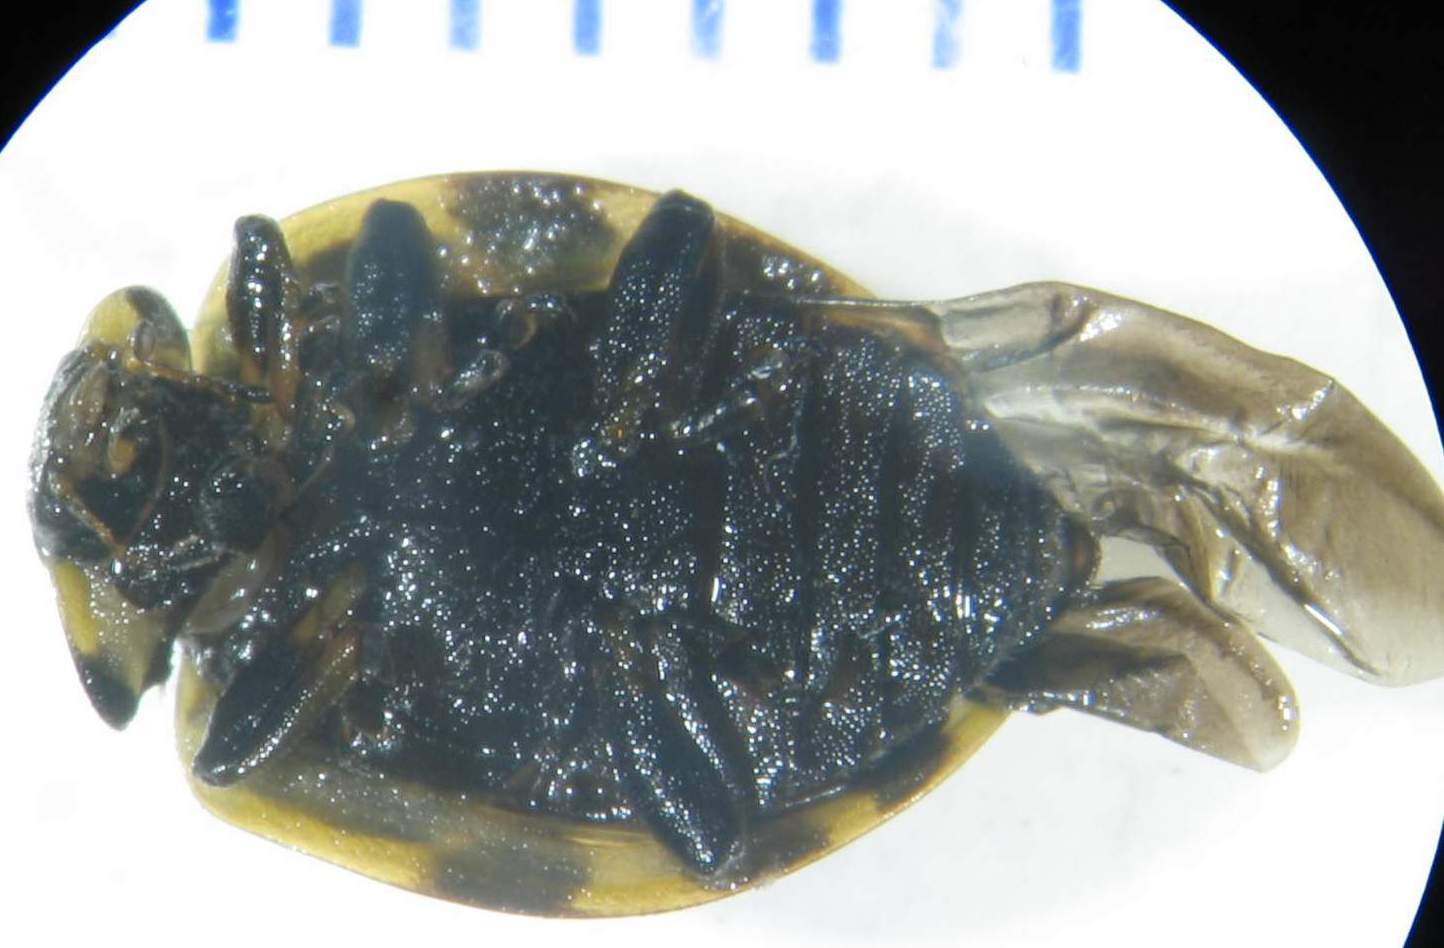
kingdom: Animalia
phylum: Arthropoda
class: Insecta
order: Coleoptera
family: Coccinellidae
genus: Cleobora
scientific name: Cleobora
